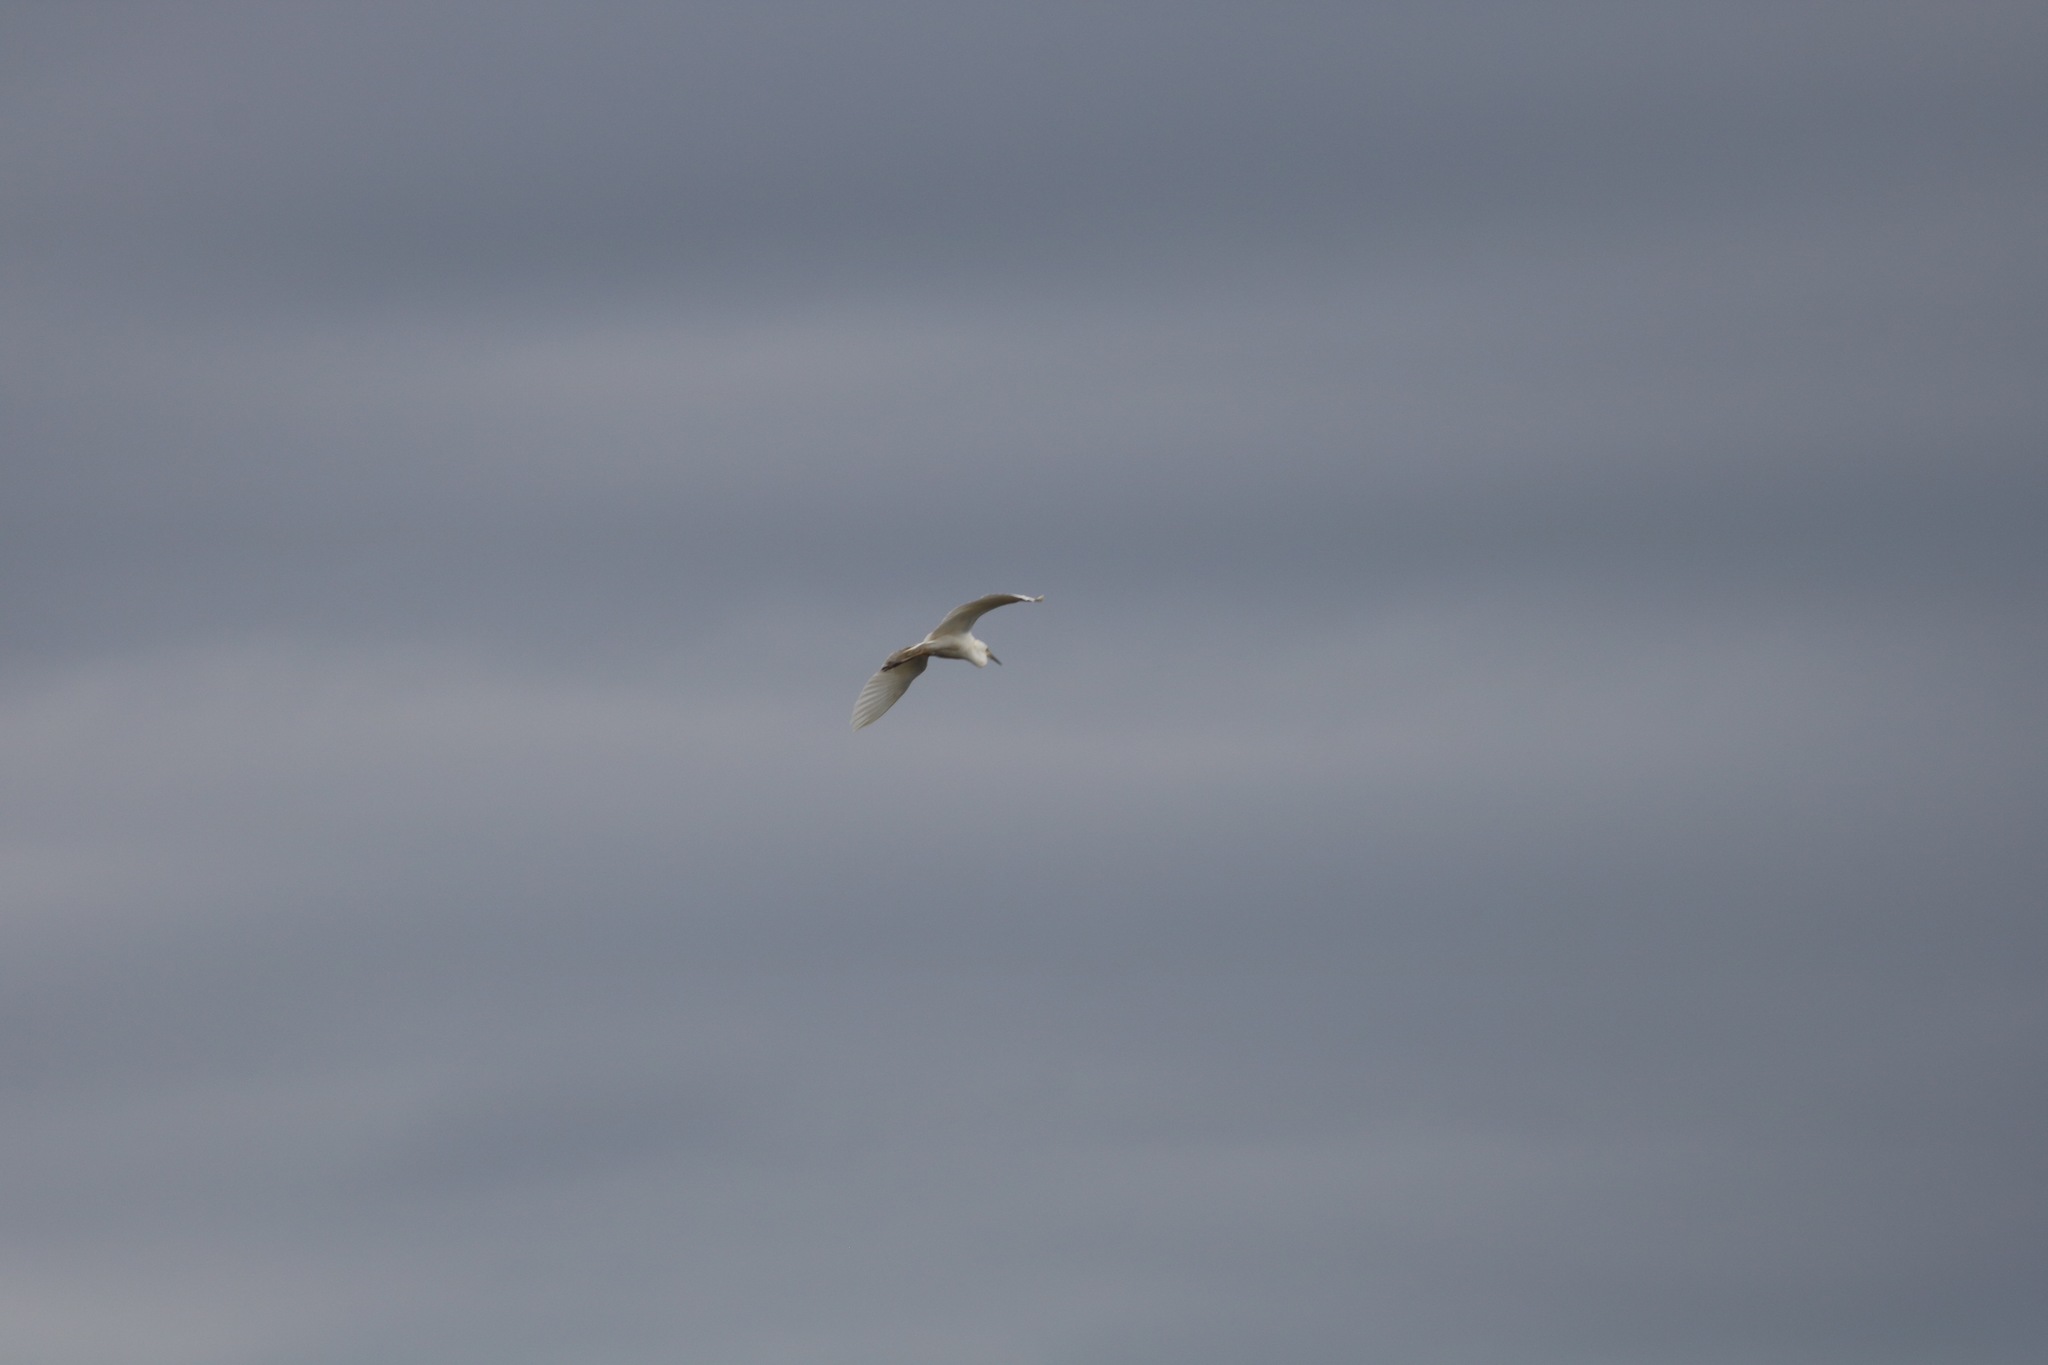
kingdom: Animalia
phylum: Chordata
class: Aves
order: Pelecaniformes
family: Ardeidae
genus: Ardea
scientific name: Ardea alba
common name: Great egret
